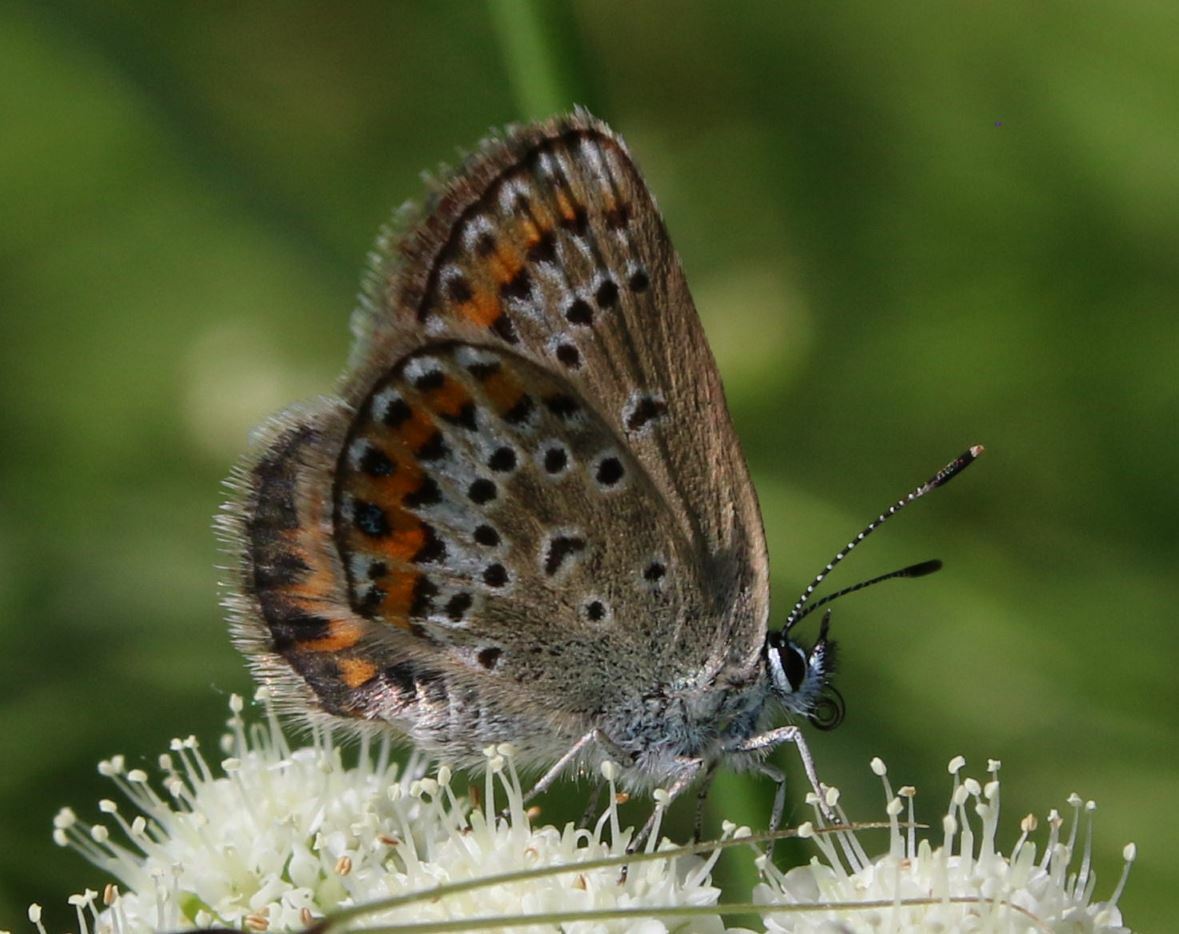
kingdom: Animalia
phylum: Arthropoda
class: Insecta
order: Lepidoptera
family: Lycaenidae
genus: Plebejus
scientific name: Plebejus argus
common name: Silver-studded blue
